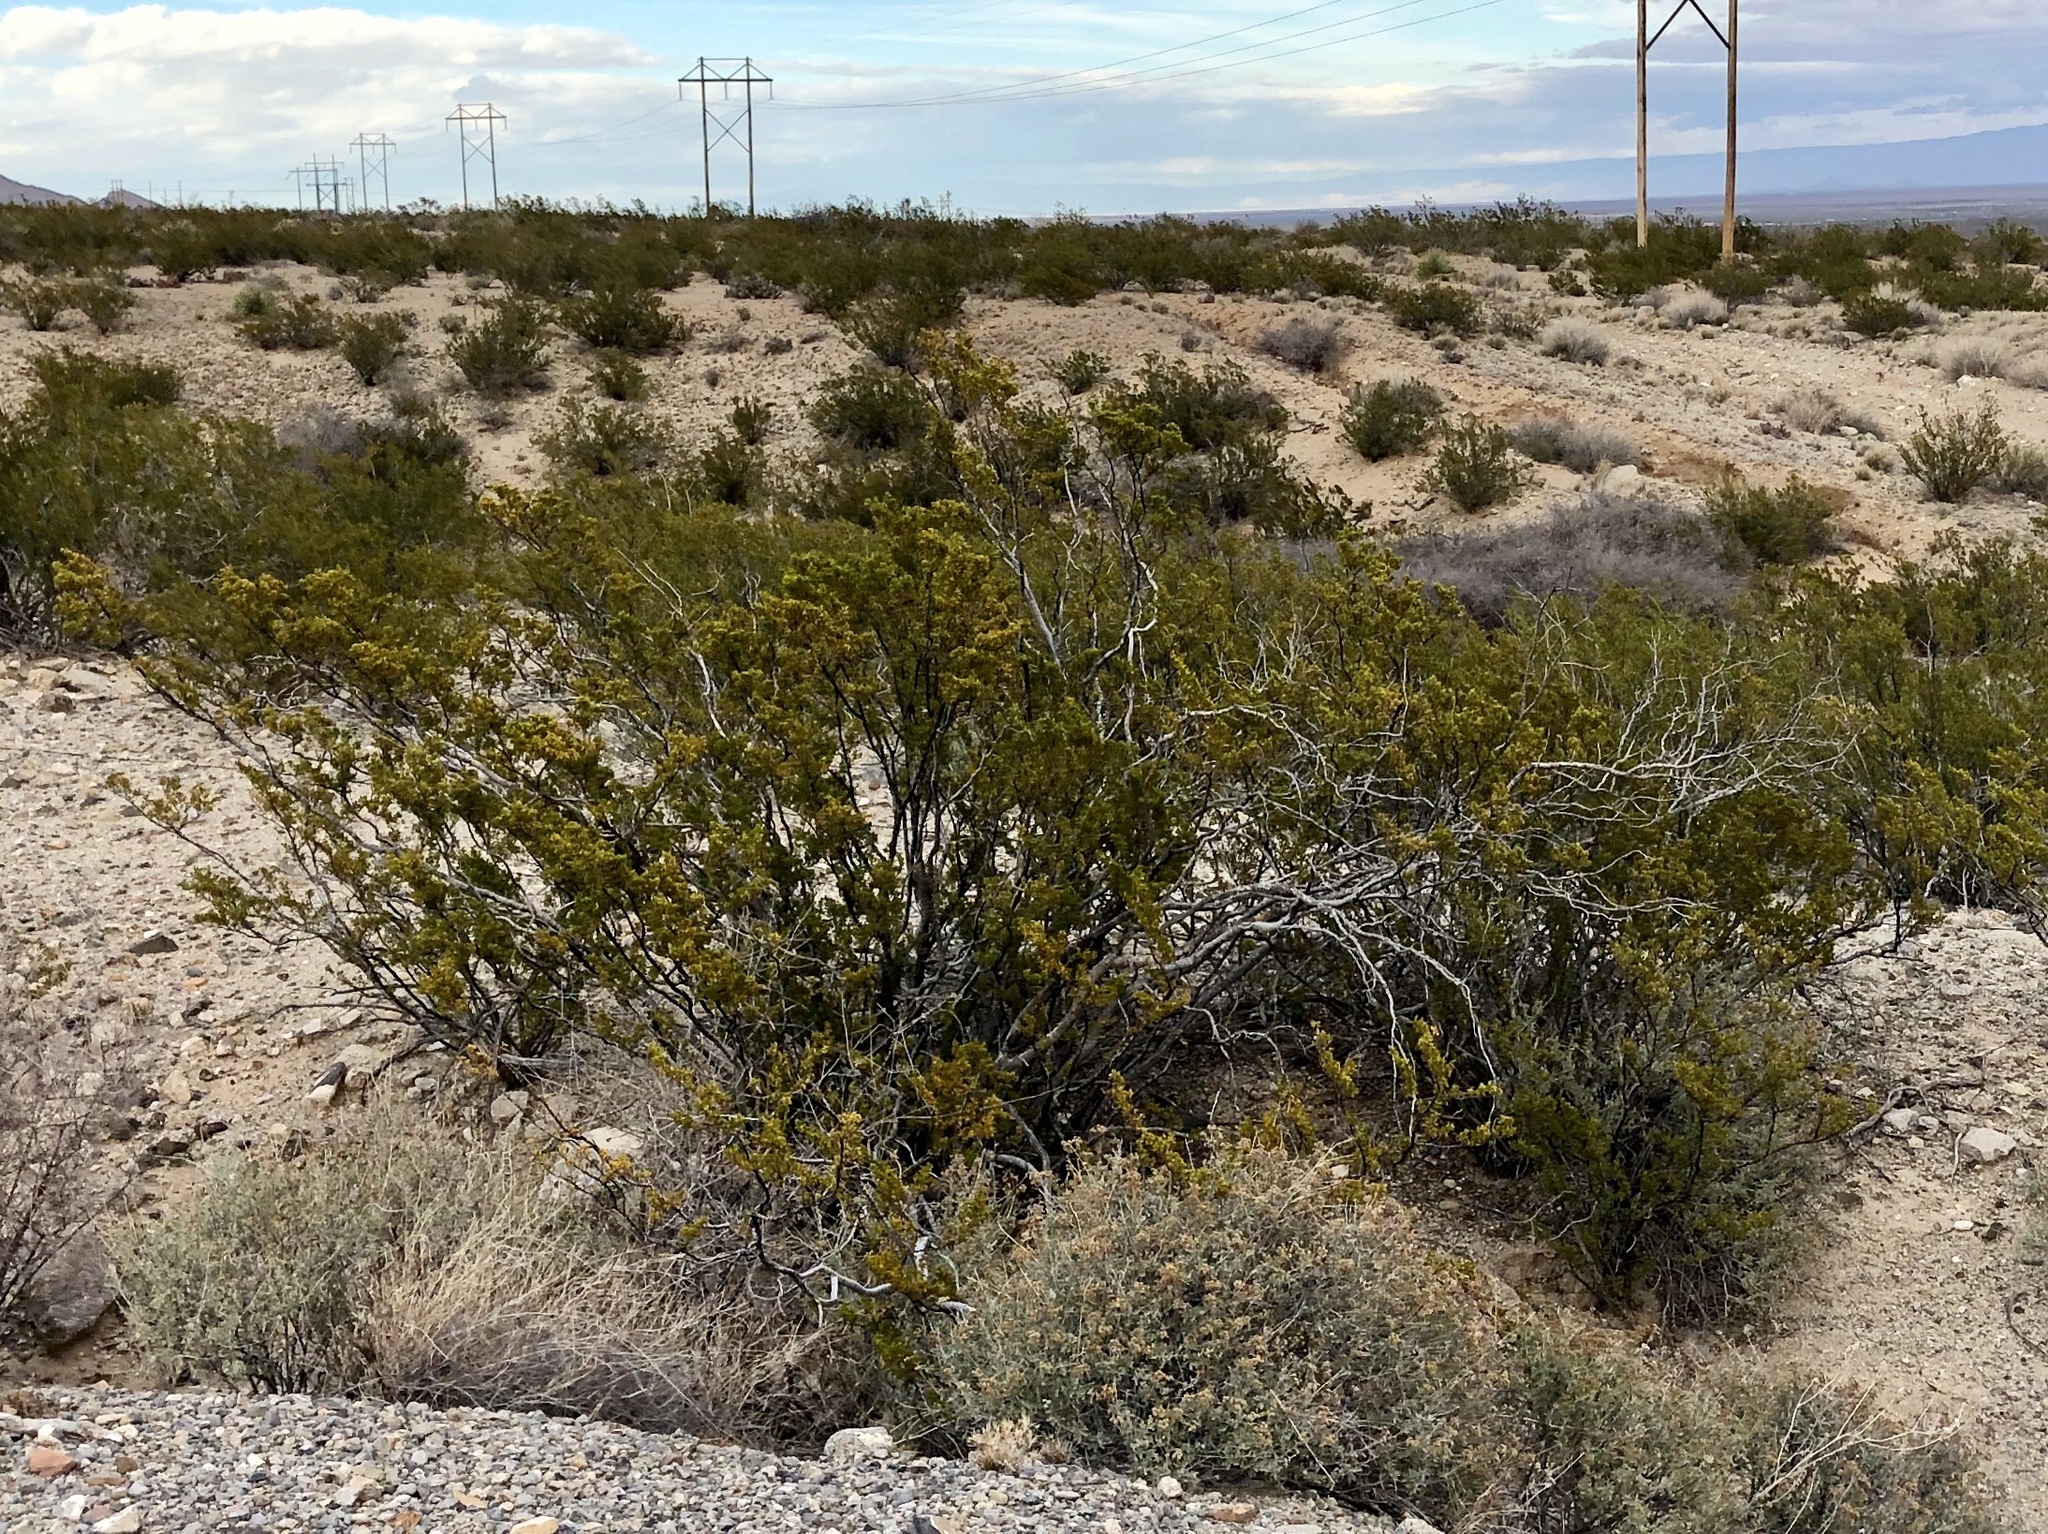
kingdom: Plantae
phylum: Tracheophyta
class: Magnoliopsida
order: Zygophyllales
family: Zygophyllaceae
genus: Larrea
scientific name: Larrea tridentata
